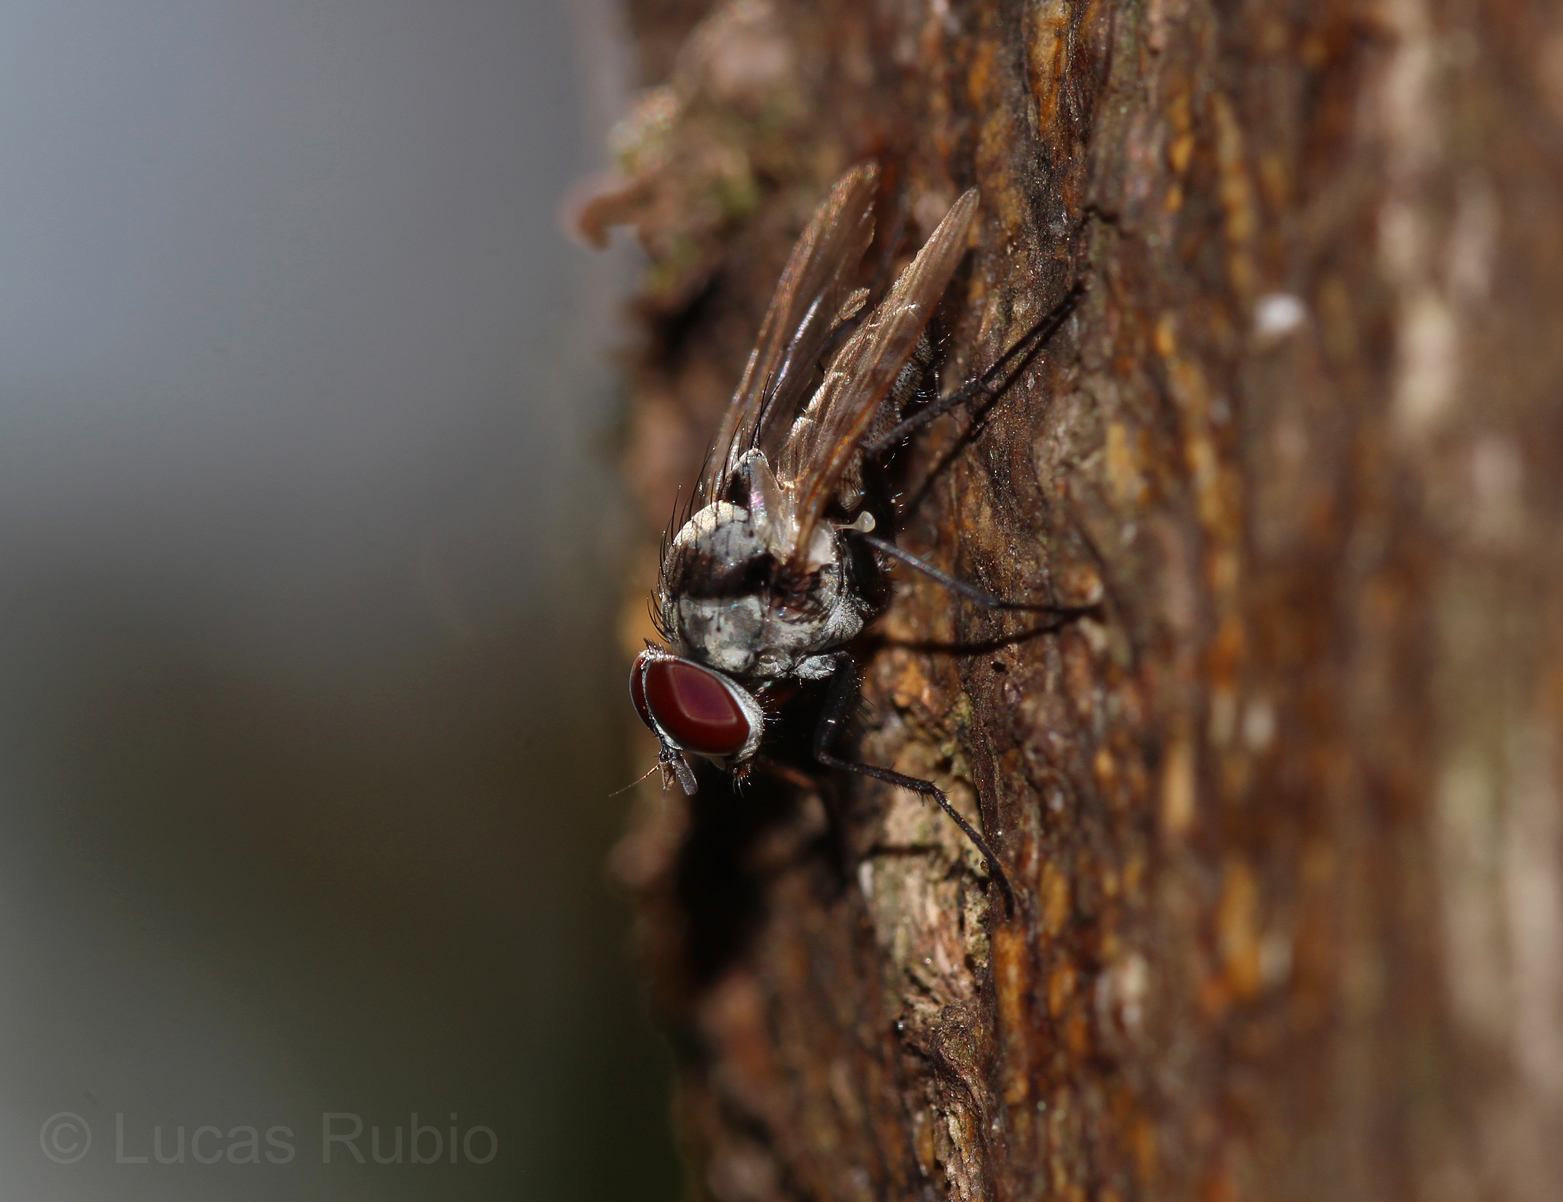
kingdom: Animalia
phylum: Arthropoda
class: Insecta
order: Diptera
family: Anthomyiidae
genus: Anthomyia
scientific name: Anthomyia illocata
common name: Fly
